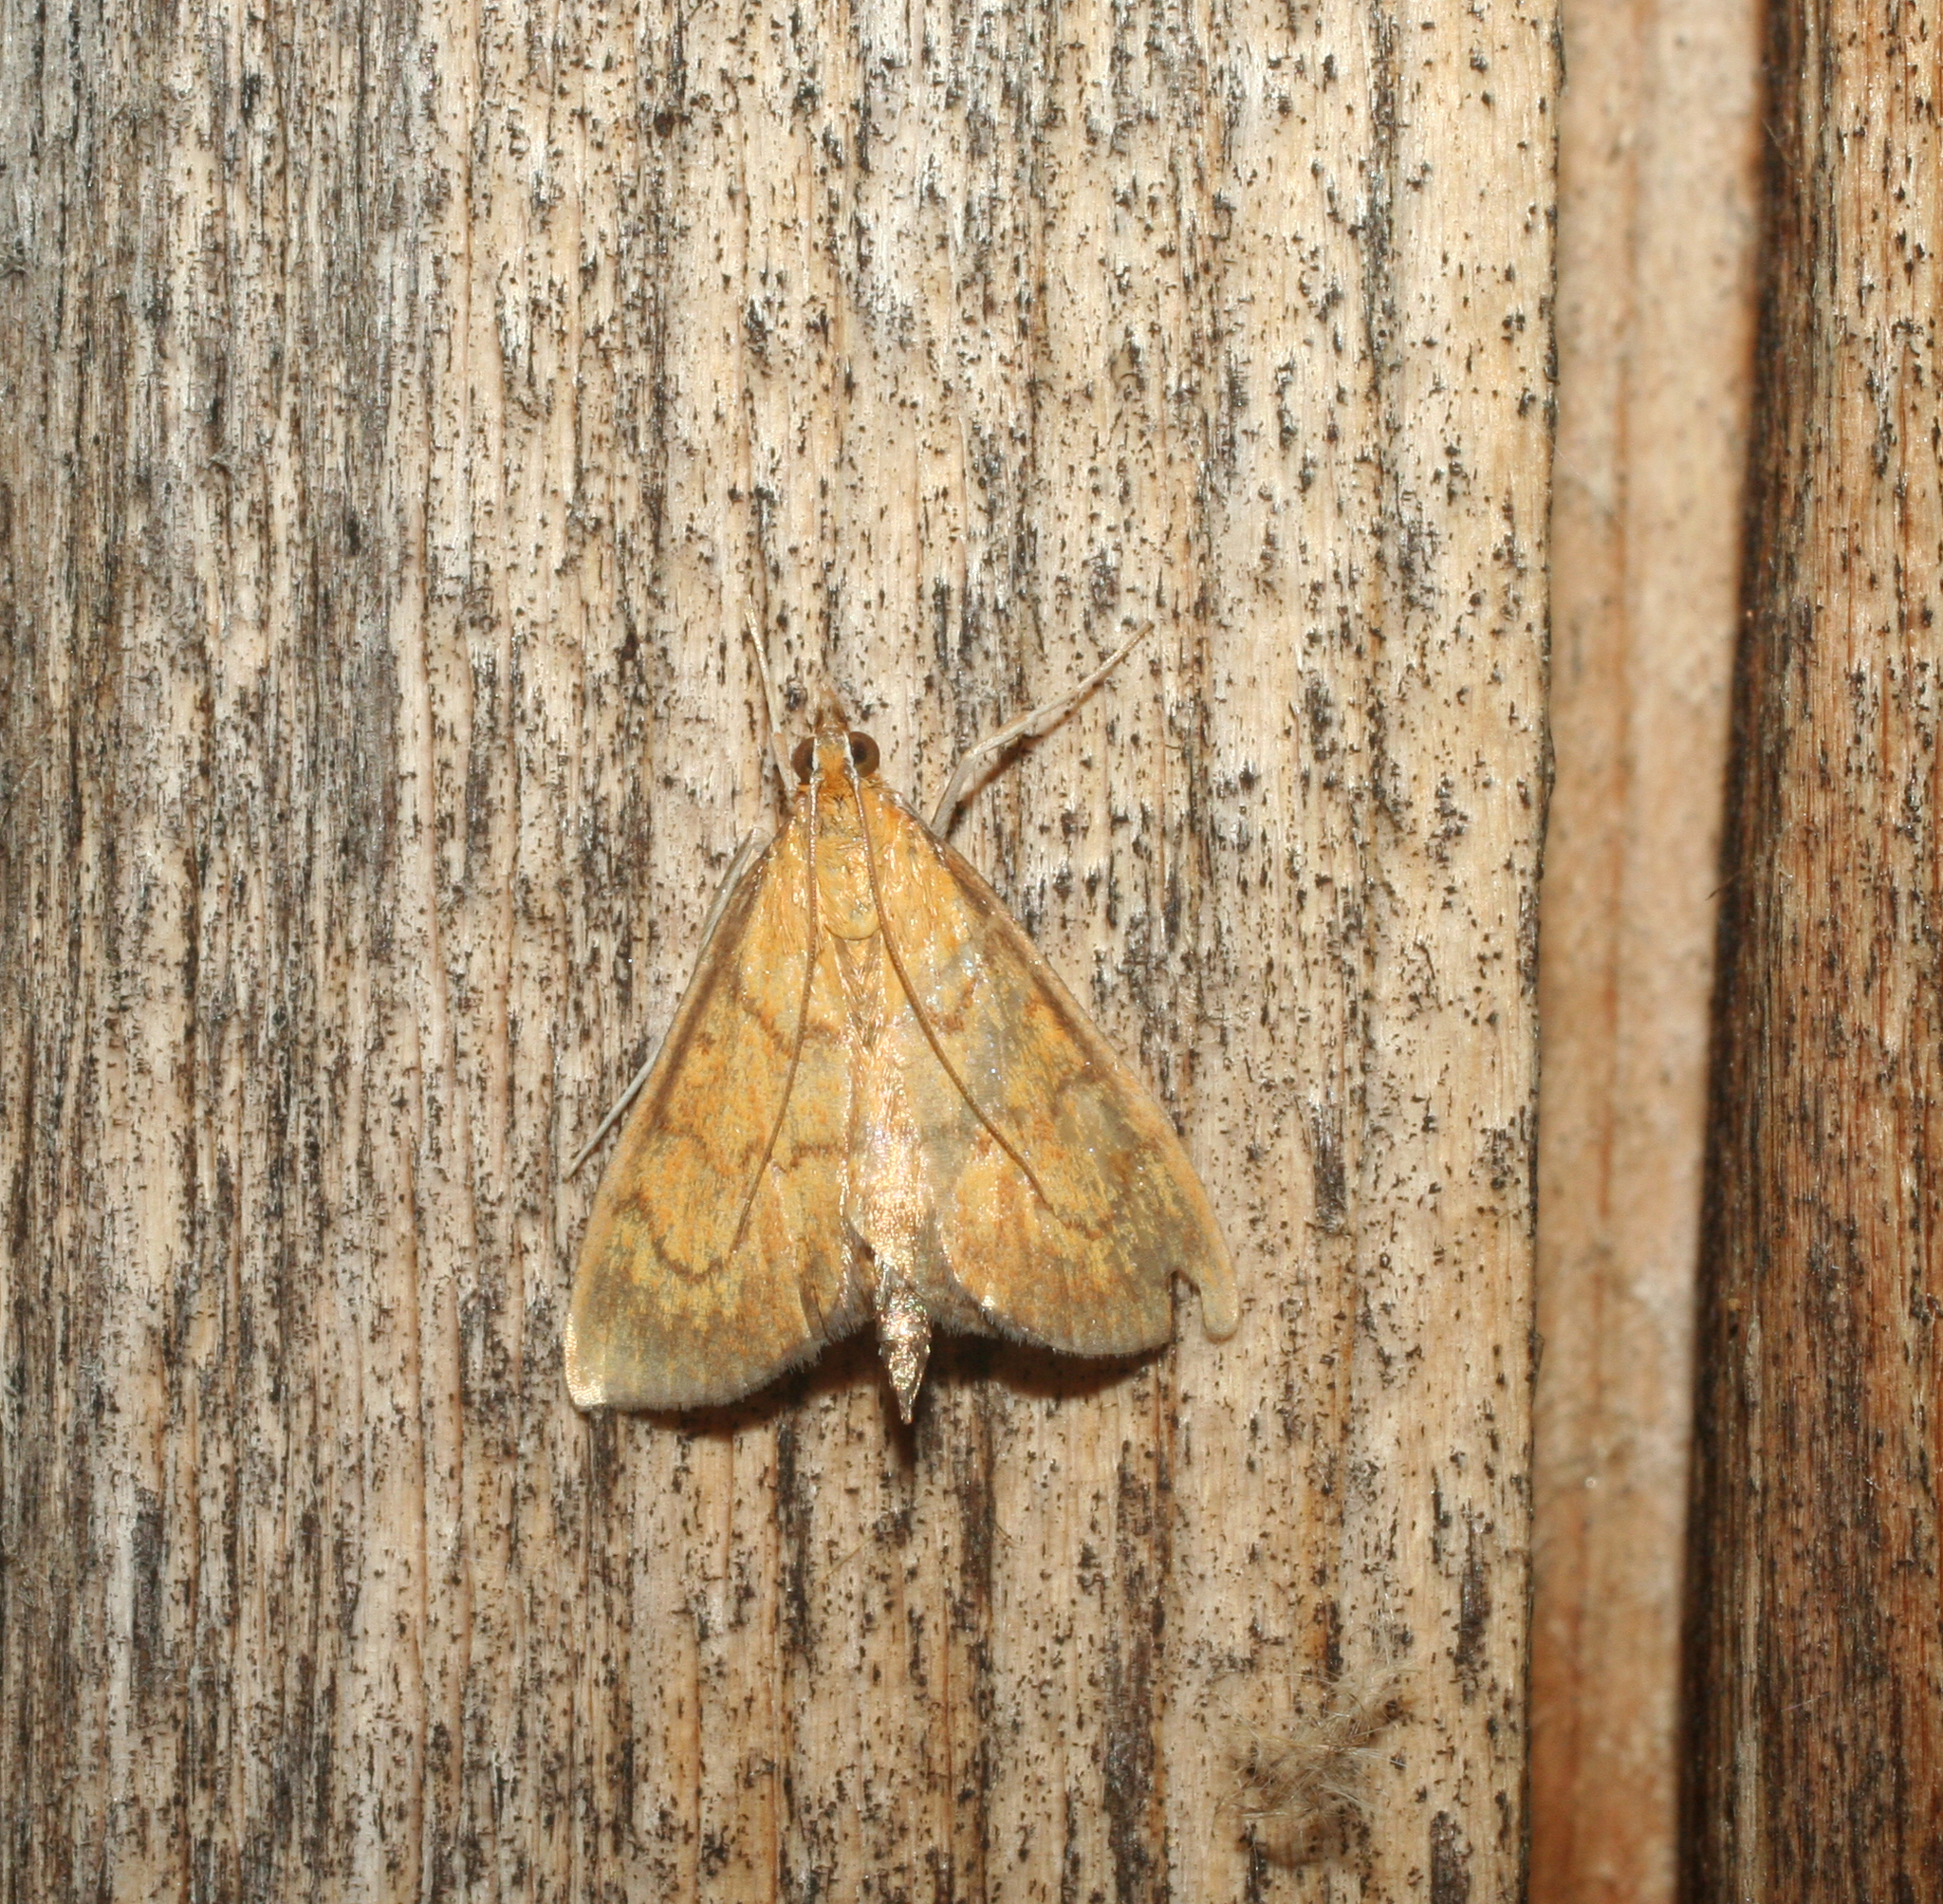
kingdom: Animalia
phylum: Arthropoda
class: Insecta
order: Lepidoptera
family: Crambidae
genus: Ecpyrrhorrhoe
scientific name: Ecpyrrhorrhoe rubiginalis
